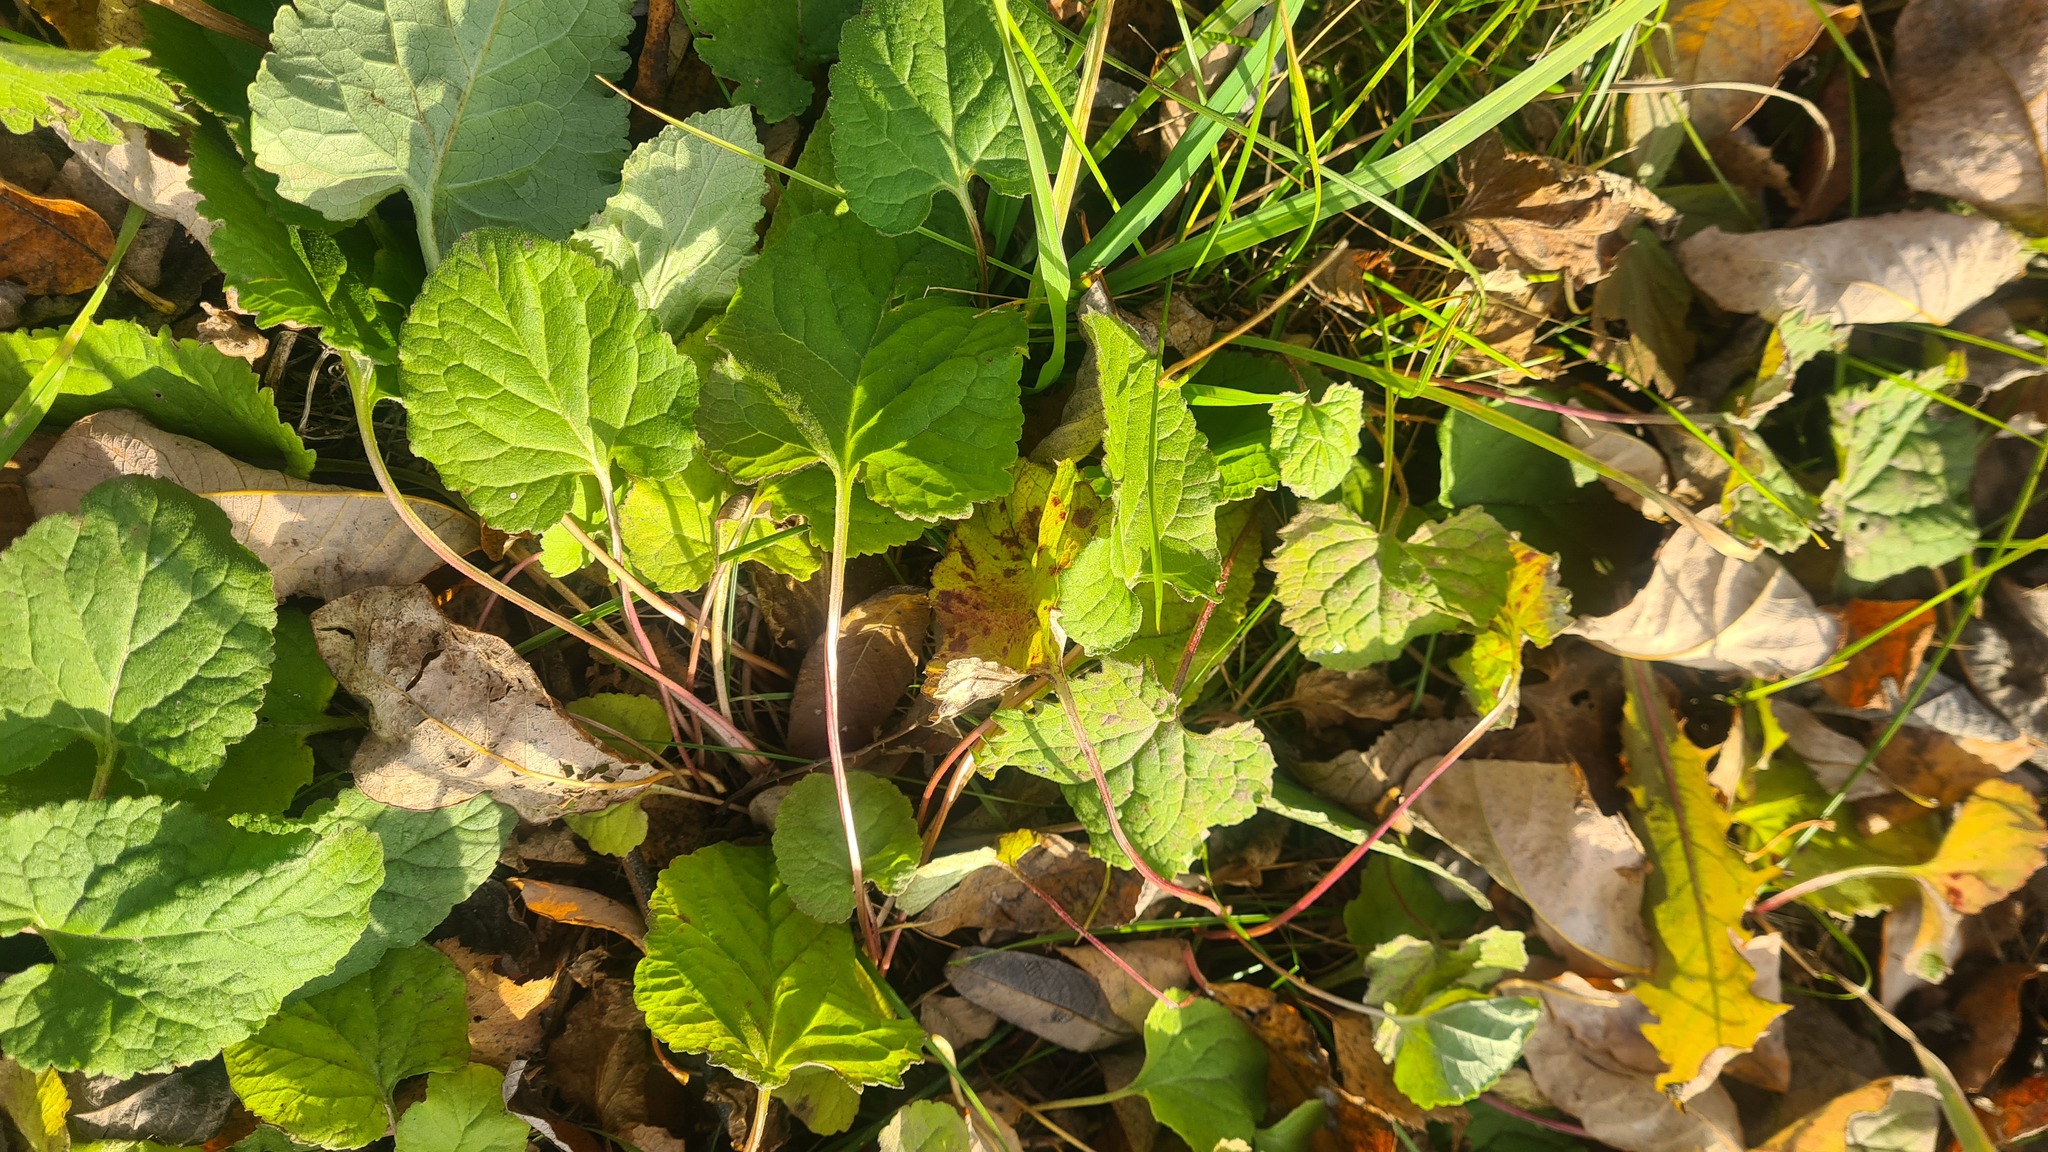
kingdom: Plantae
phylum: Tracheophyta
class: Magnoliopsida
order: Asterales
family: Campanulaceae
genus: Campanula
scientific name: Campanula rapunculoides
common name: Creeping bellflower
